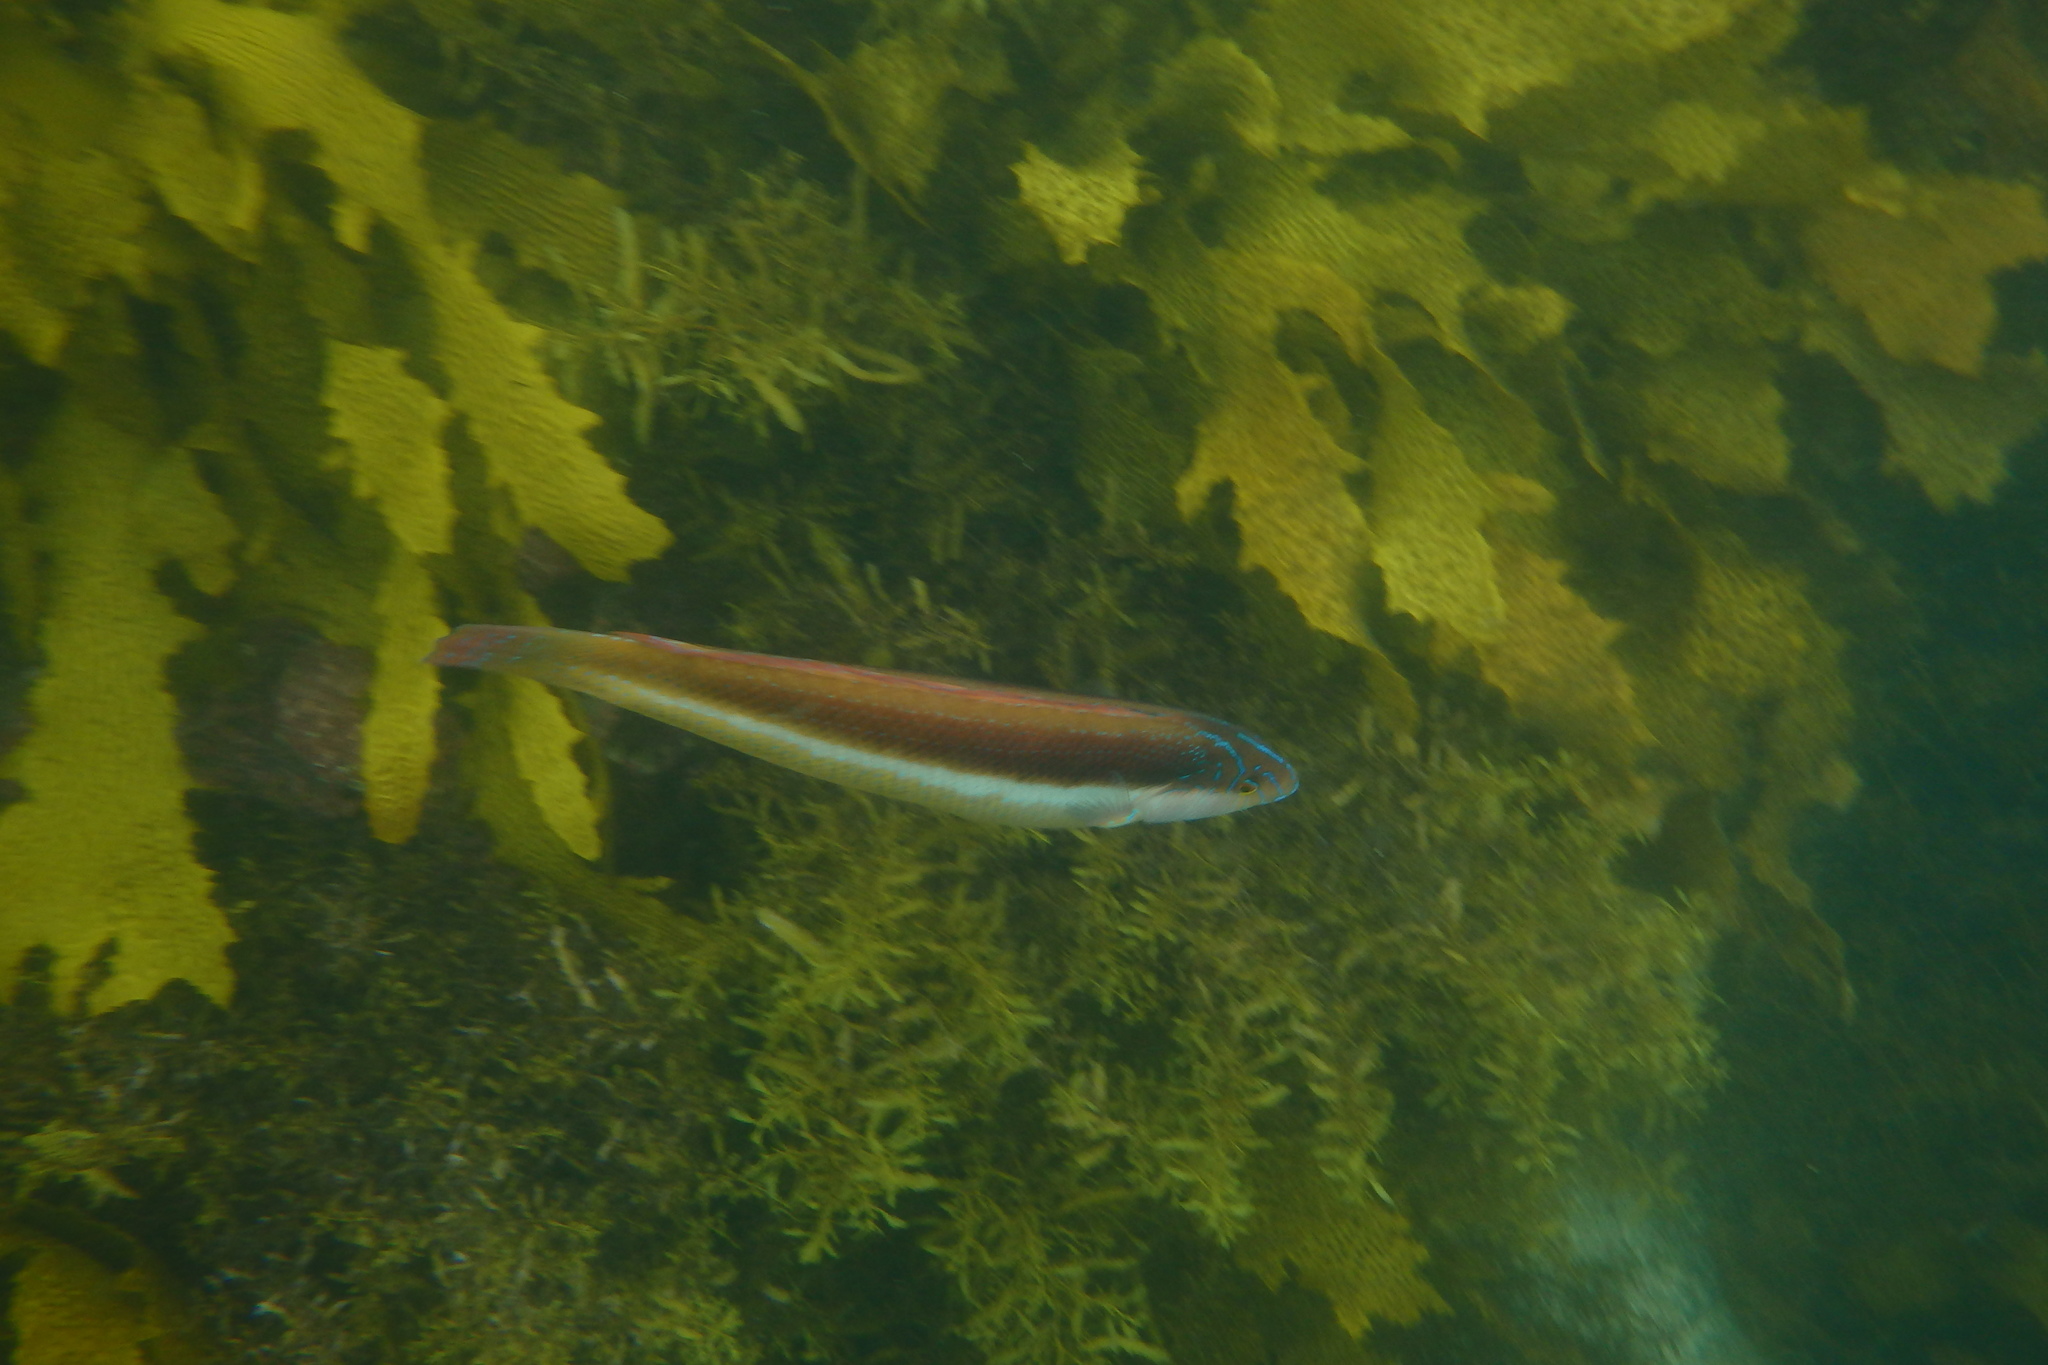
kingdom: Animalia
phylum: Chordata
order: Perciformes
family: Labridae
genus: Ophthalmolepis
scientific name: Ophthalmolepis lineolata
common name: Maori wrasse
